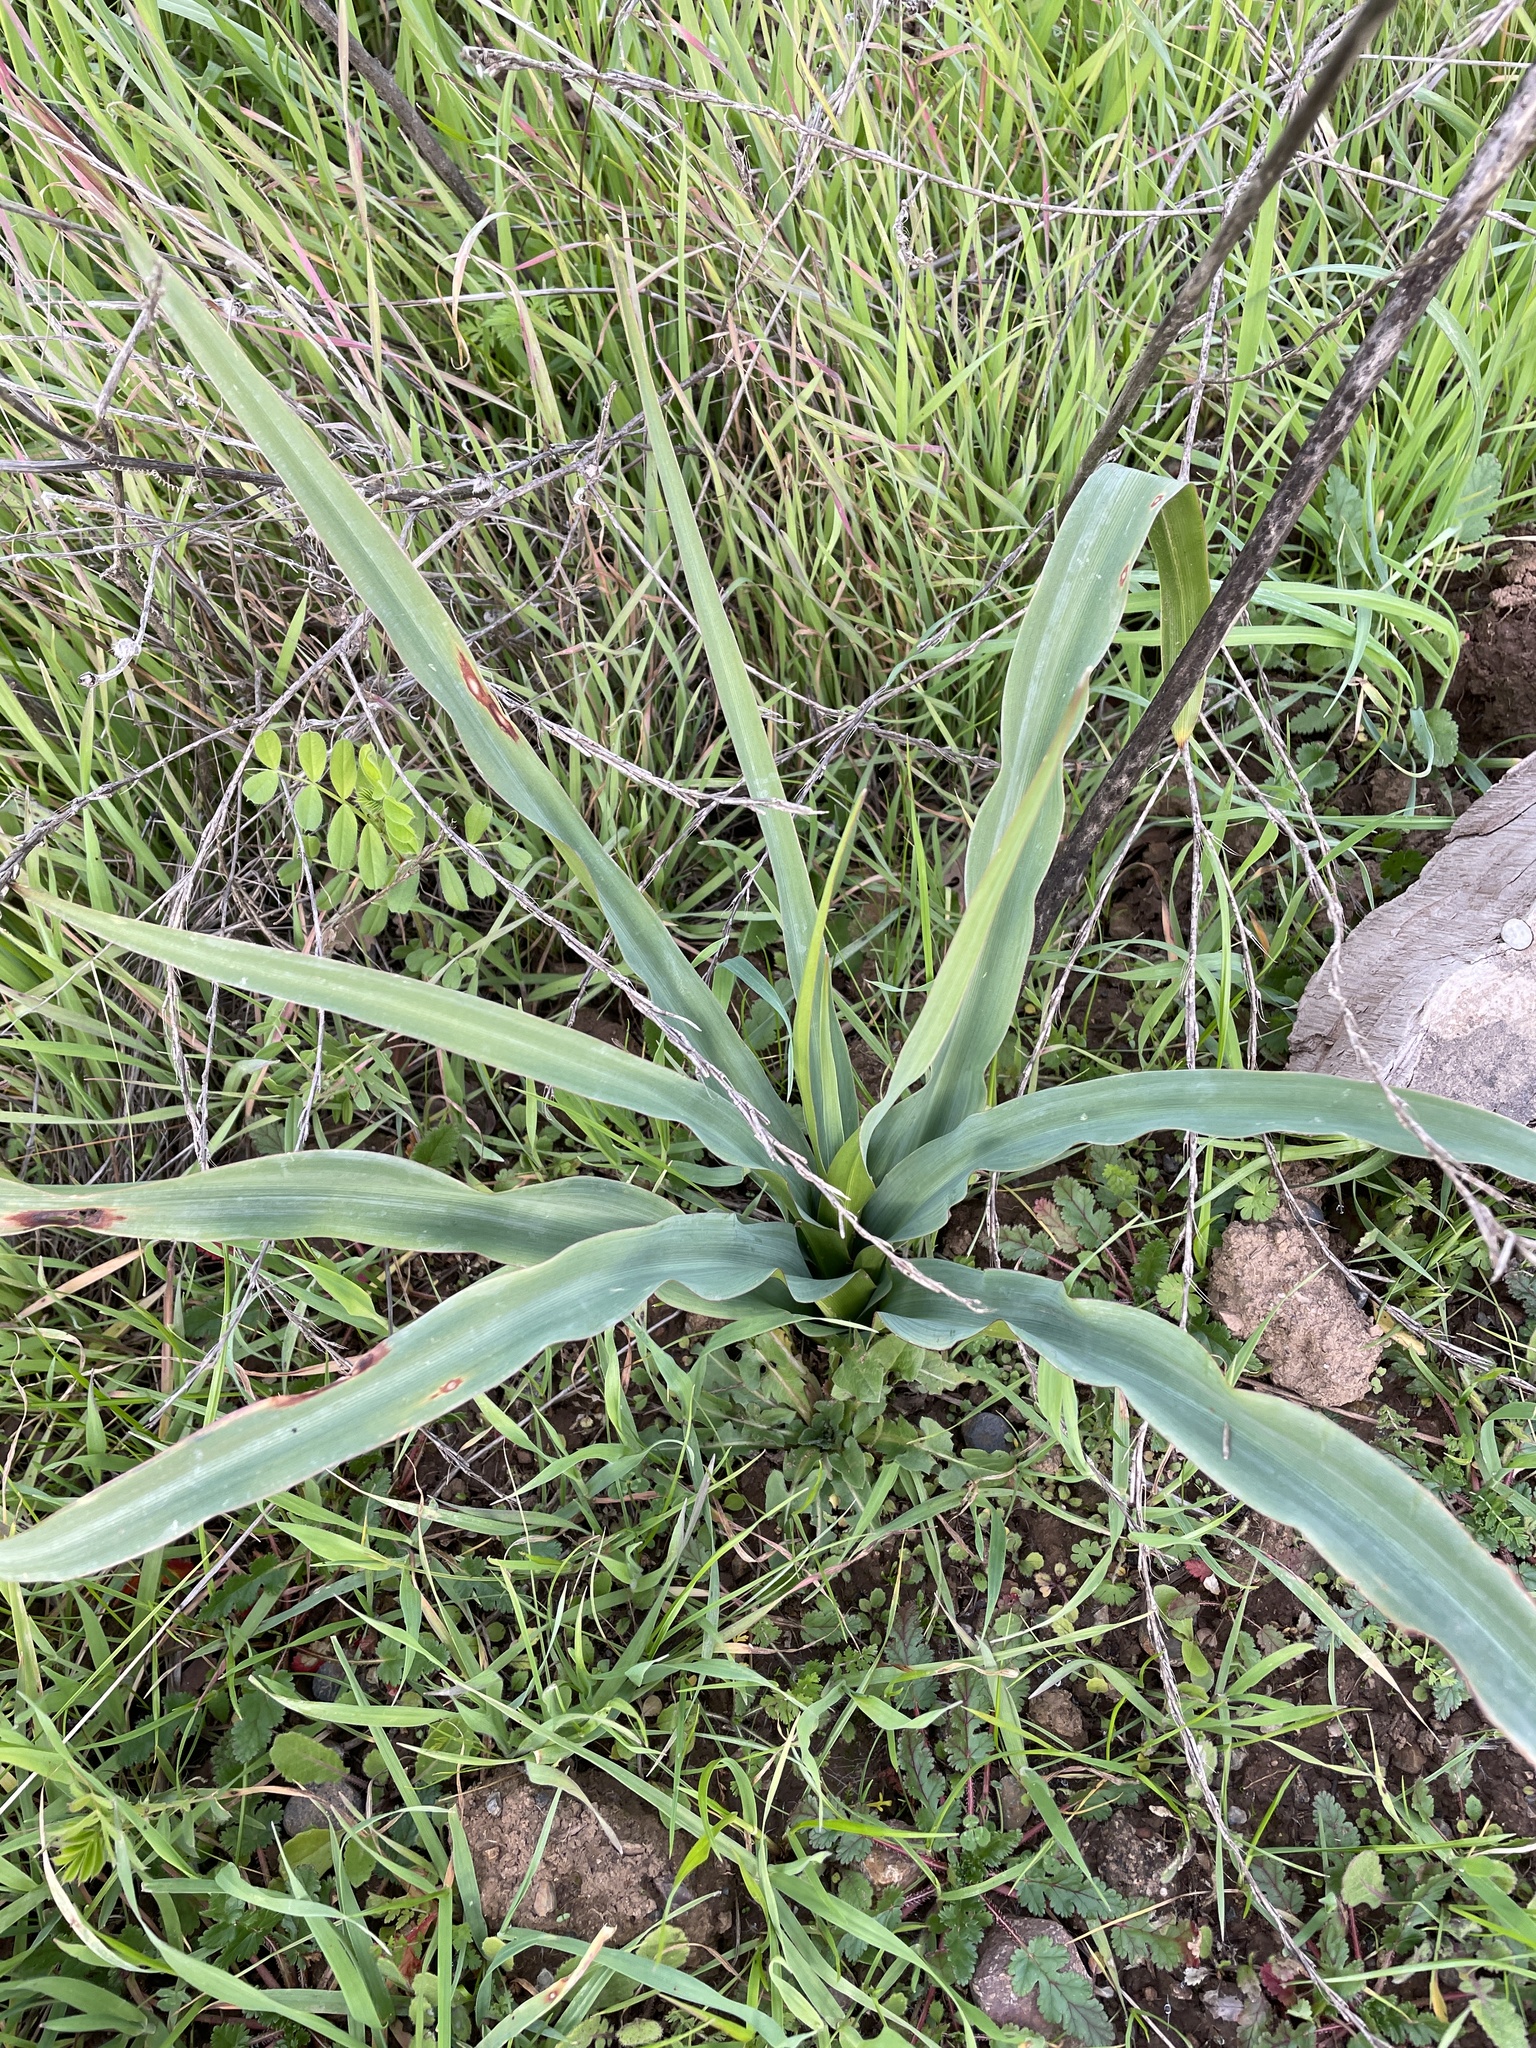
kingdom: Plantae
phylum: Tracheophyta
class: Liliopsida
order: Asparagales
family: Asparagaceae
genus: Chlorogalum
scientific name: Chlorogalum pomeridianum
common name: Amole
